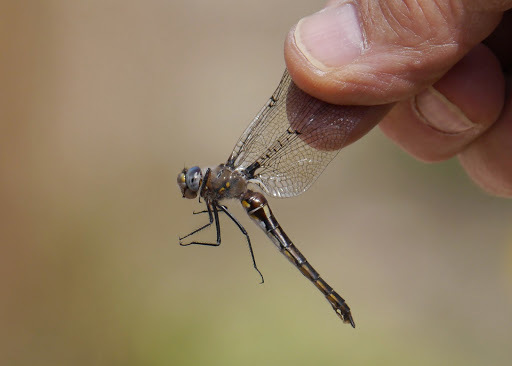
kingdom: Animalia
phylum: Arthropoda
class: Insecta
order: Odonata
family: Corduliidae
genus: Epitheca
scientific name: Epitheca petechialis
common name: Dot-winged baskettail
